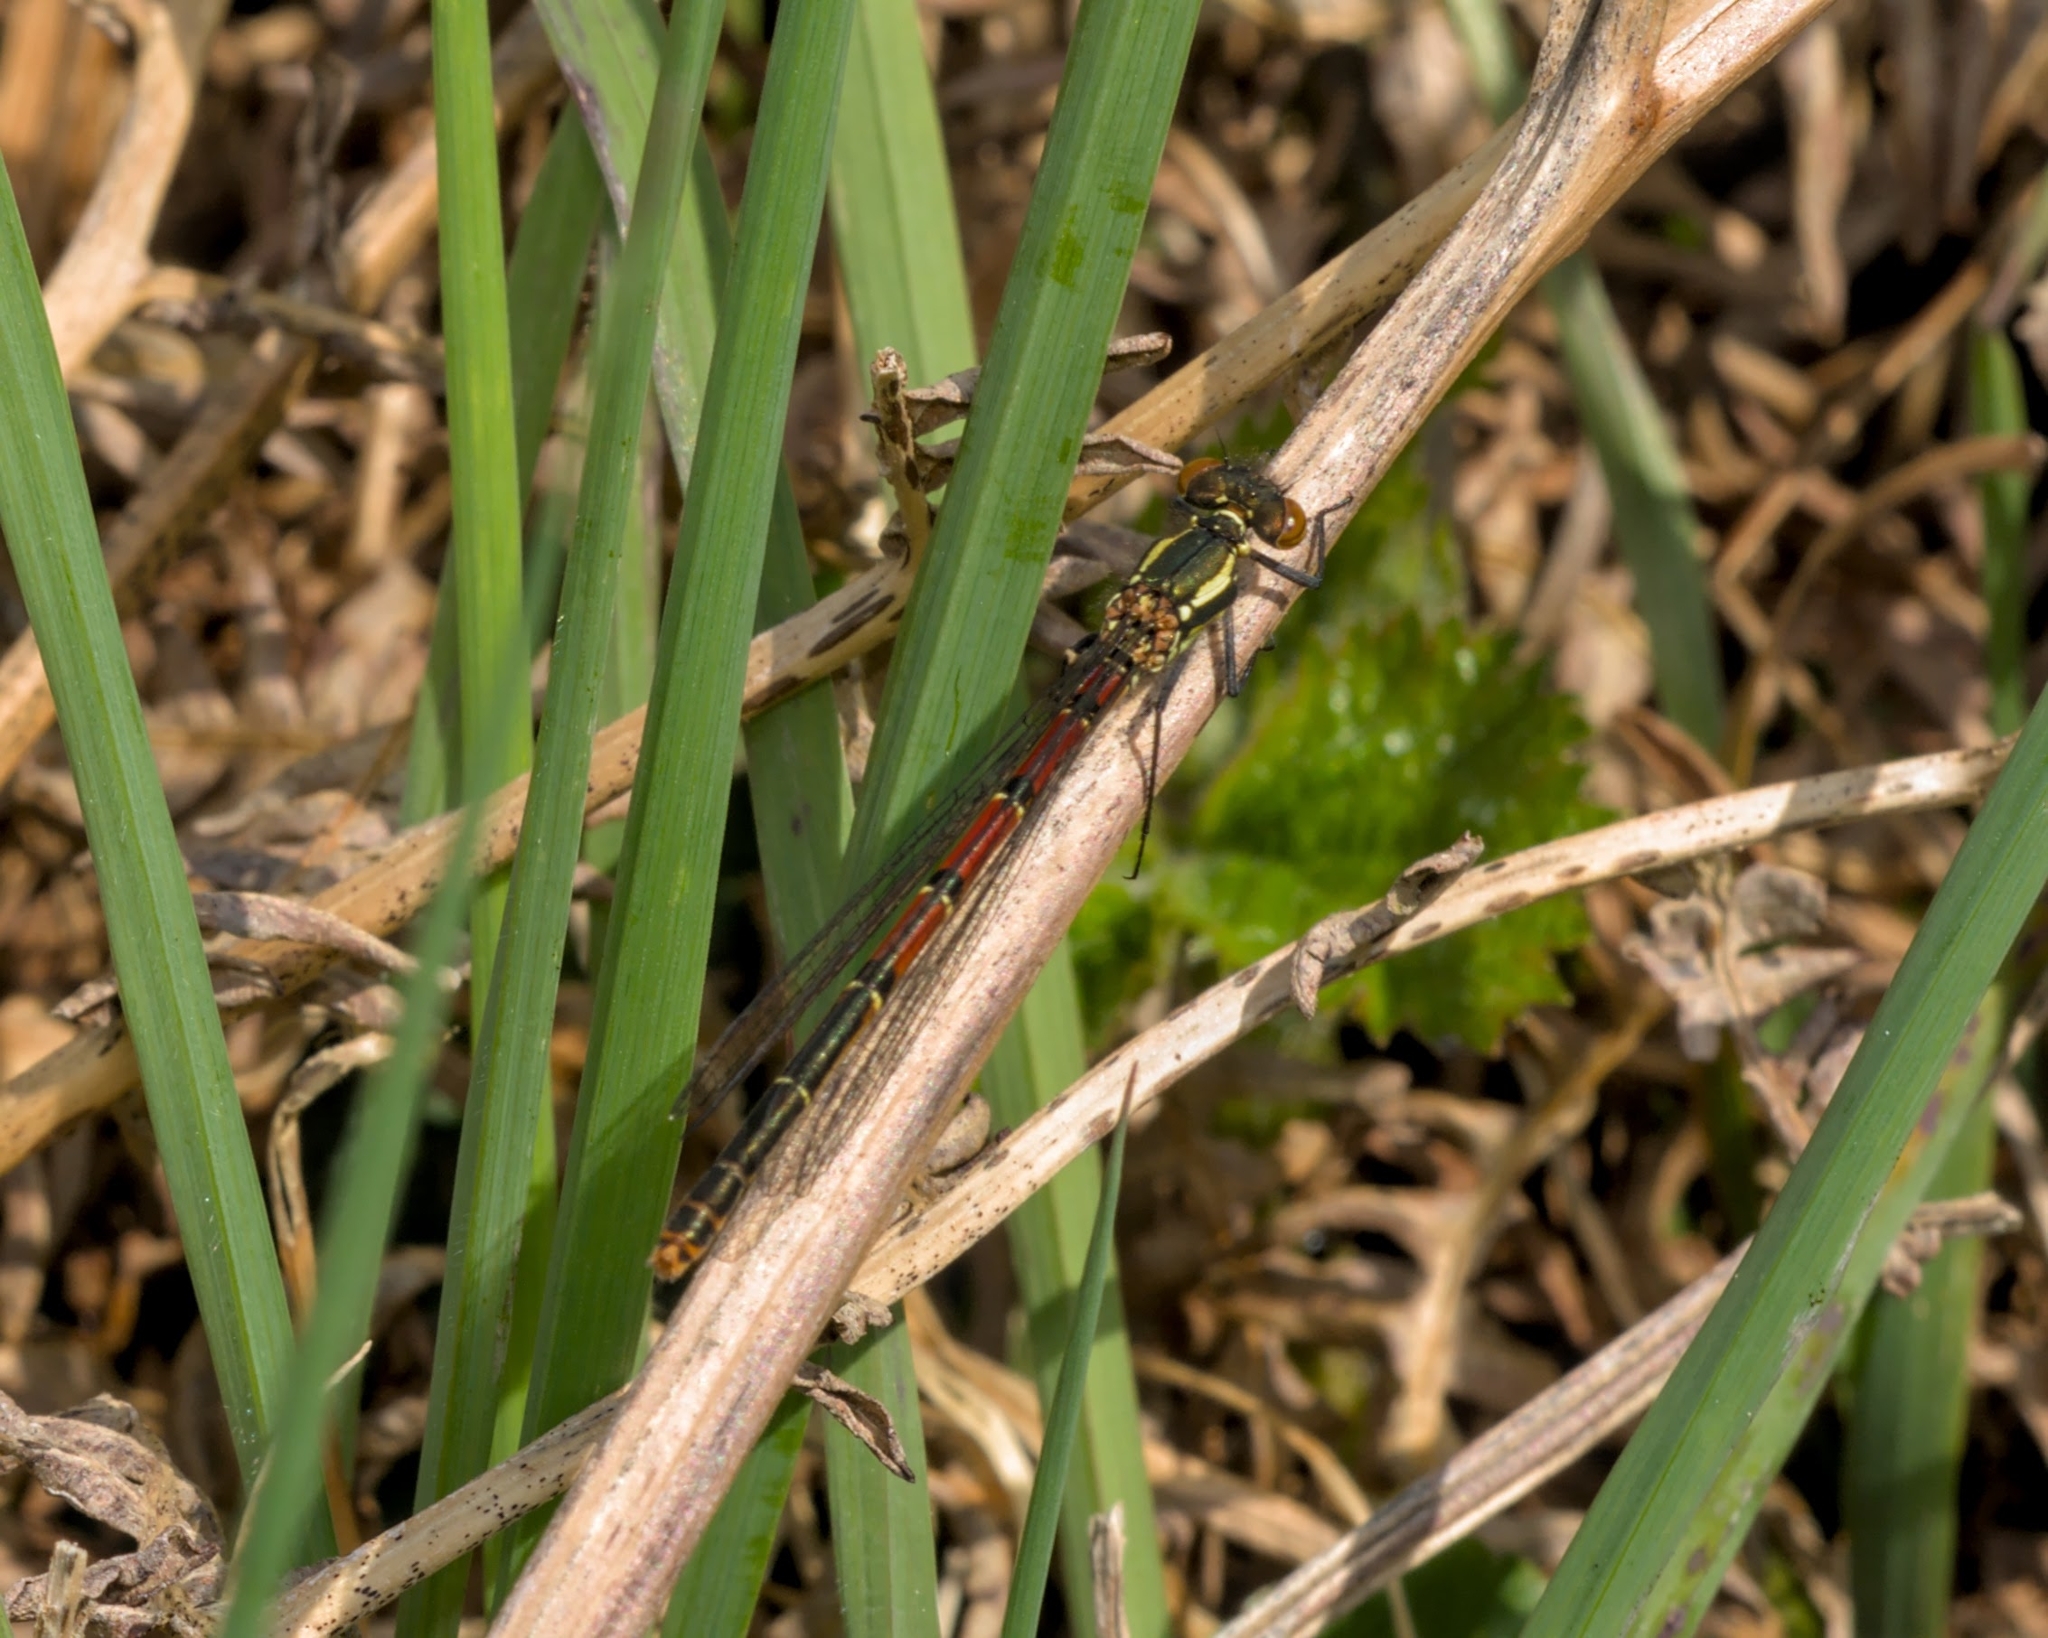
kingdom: Animalia
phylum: Arthropoda
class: Insecta
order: Odonata
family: Coenagrionidae
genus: Pyrrhosoma
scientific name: Pyrrhosoma nymphula
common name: Large red damsel
